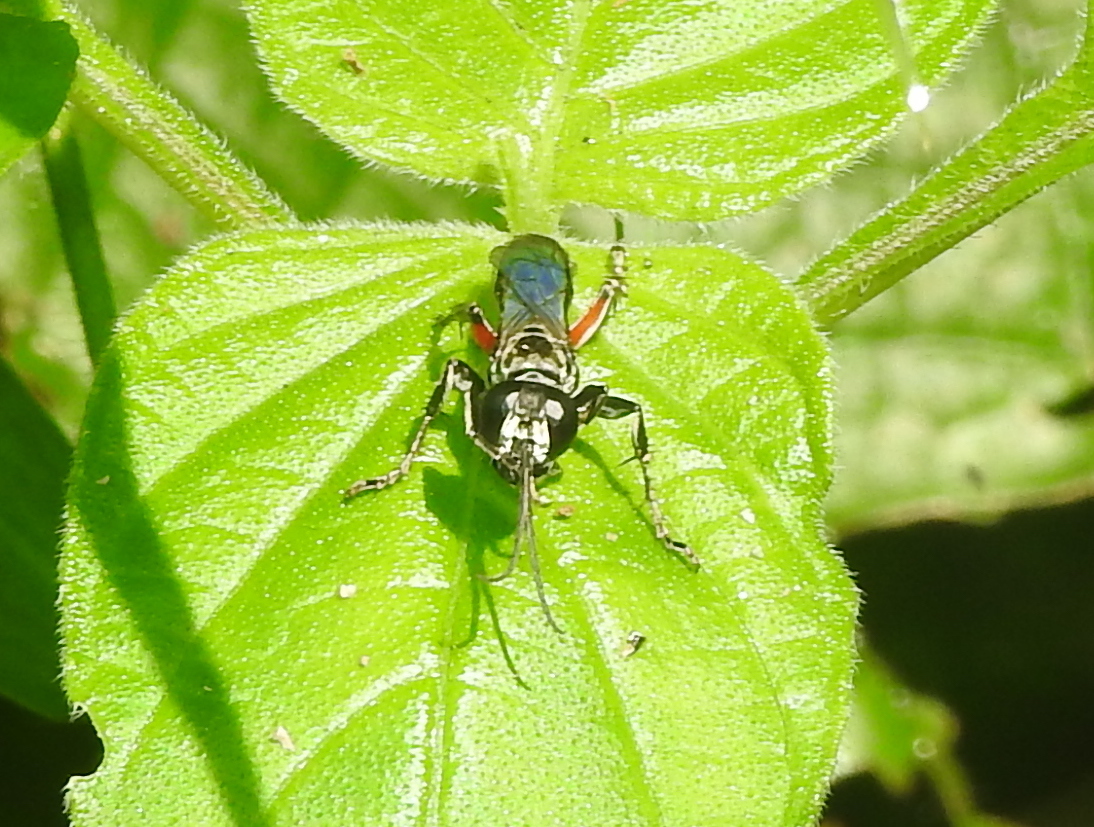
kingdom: Animalia
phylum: Arthropoda
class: Insecta
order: Hymenoptera
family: Crabronidae
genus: Liris
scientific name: Liris subtessellatus
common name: Crabronid wasp
